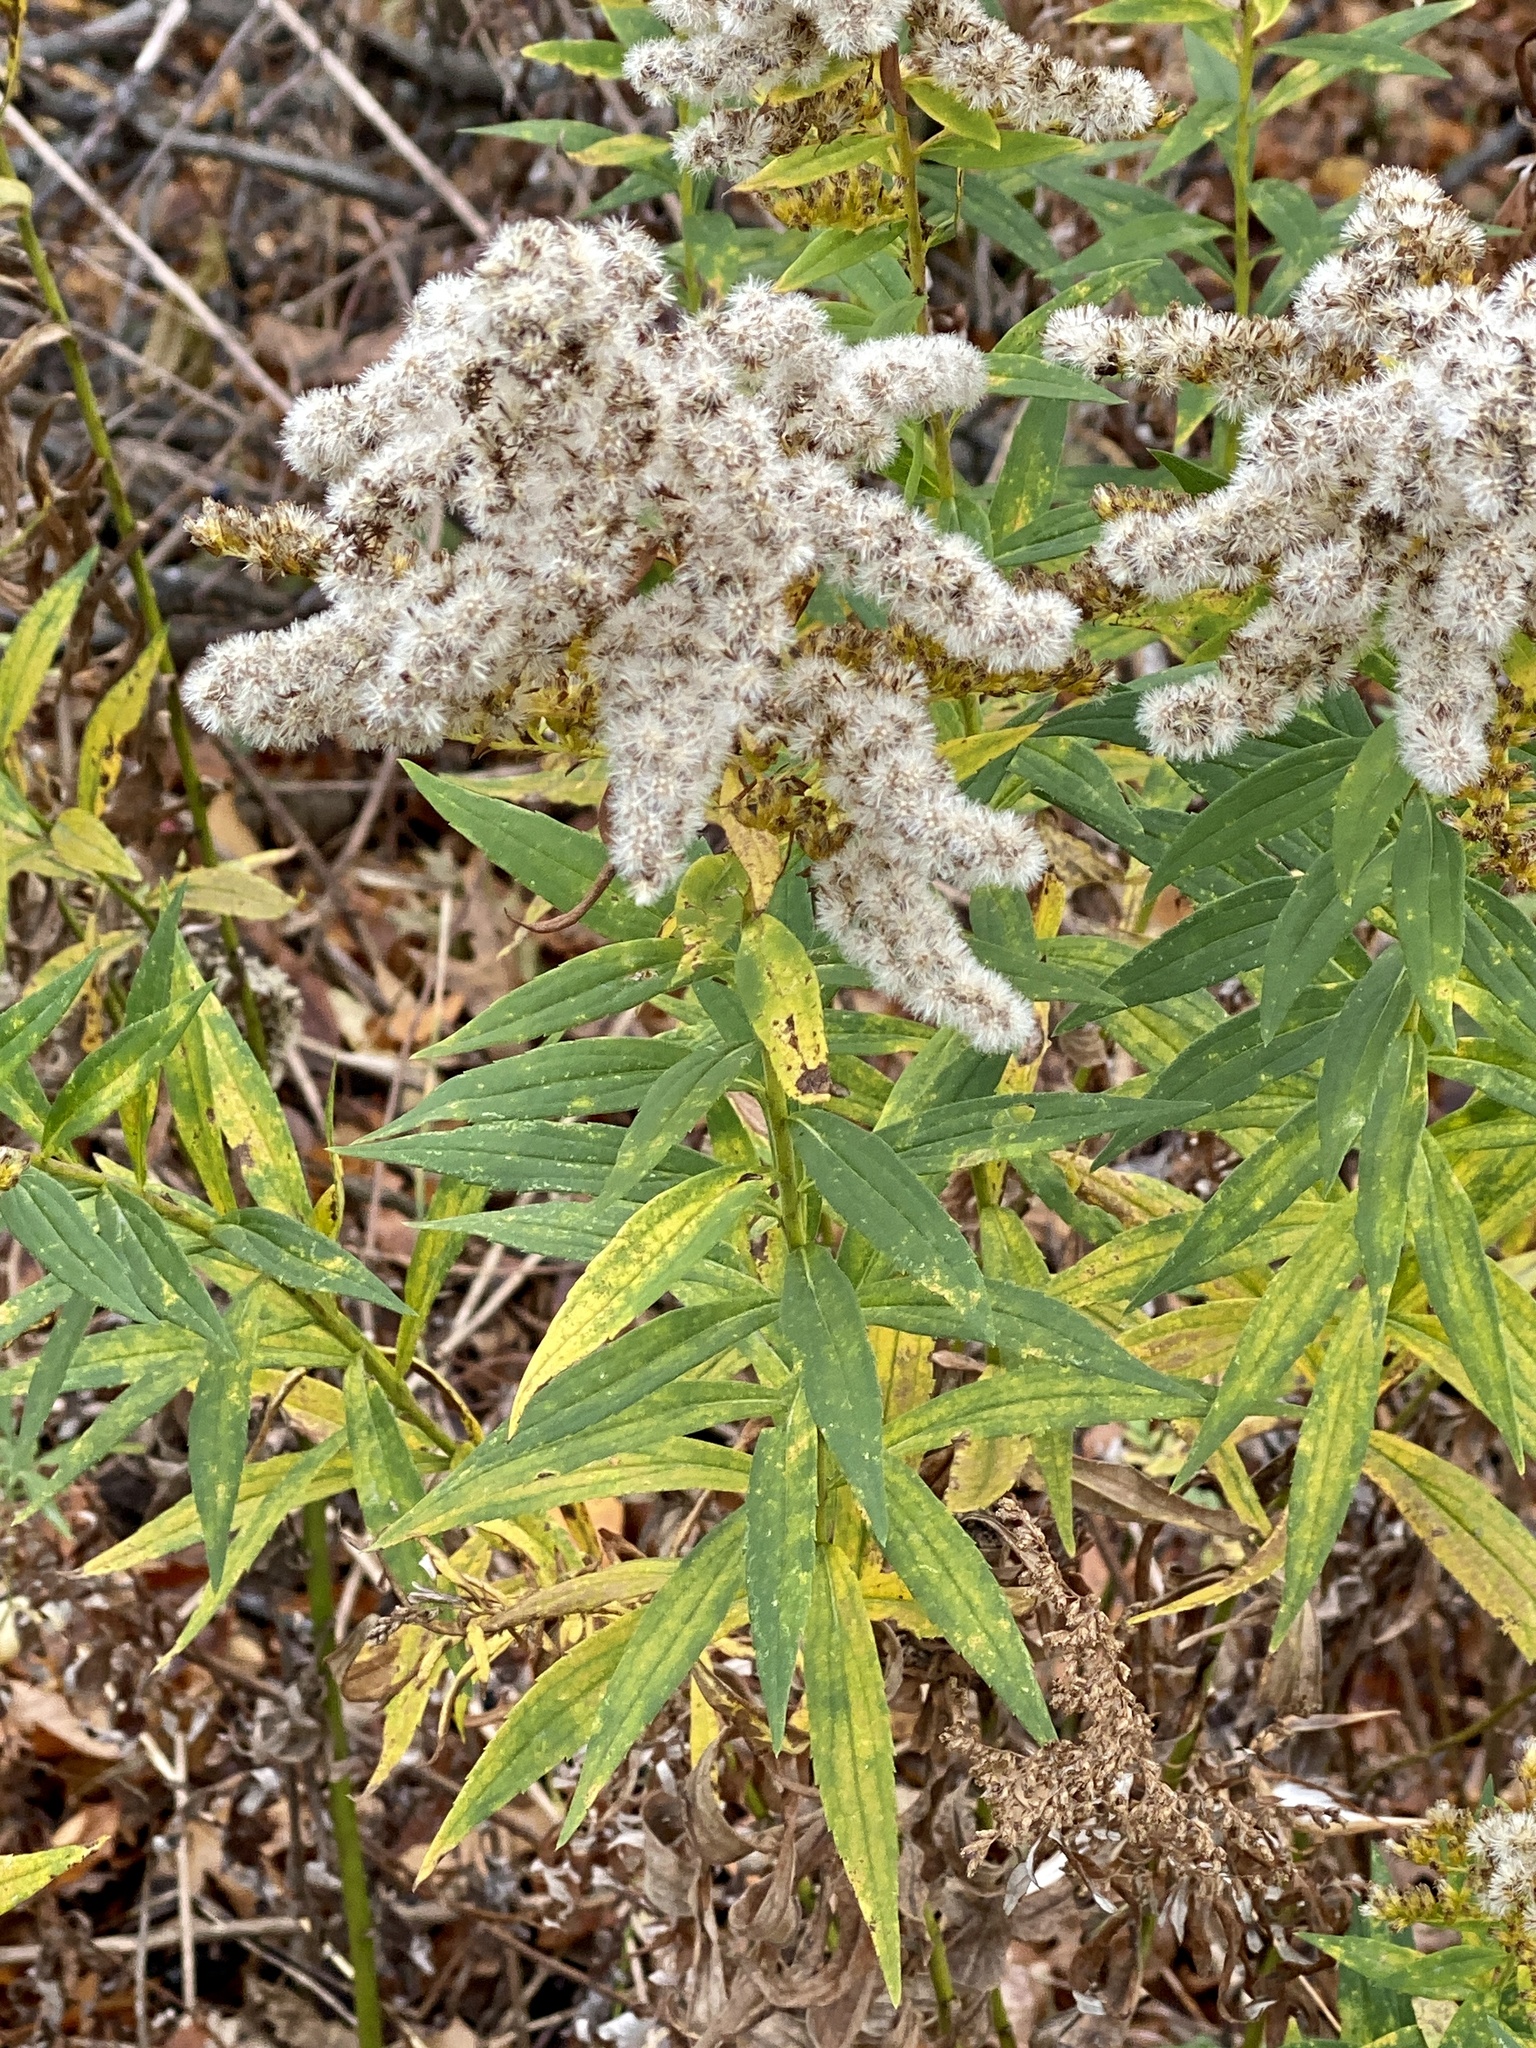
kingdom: Plantae
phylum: Tracheophyta
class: Magnoliopsida
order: Asterales
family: Asteraceae
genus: Solidago
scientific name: Solidago altissima
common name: Late goldenrod
